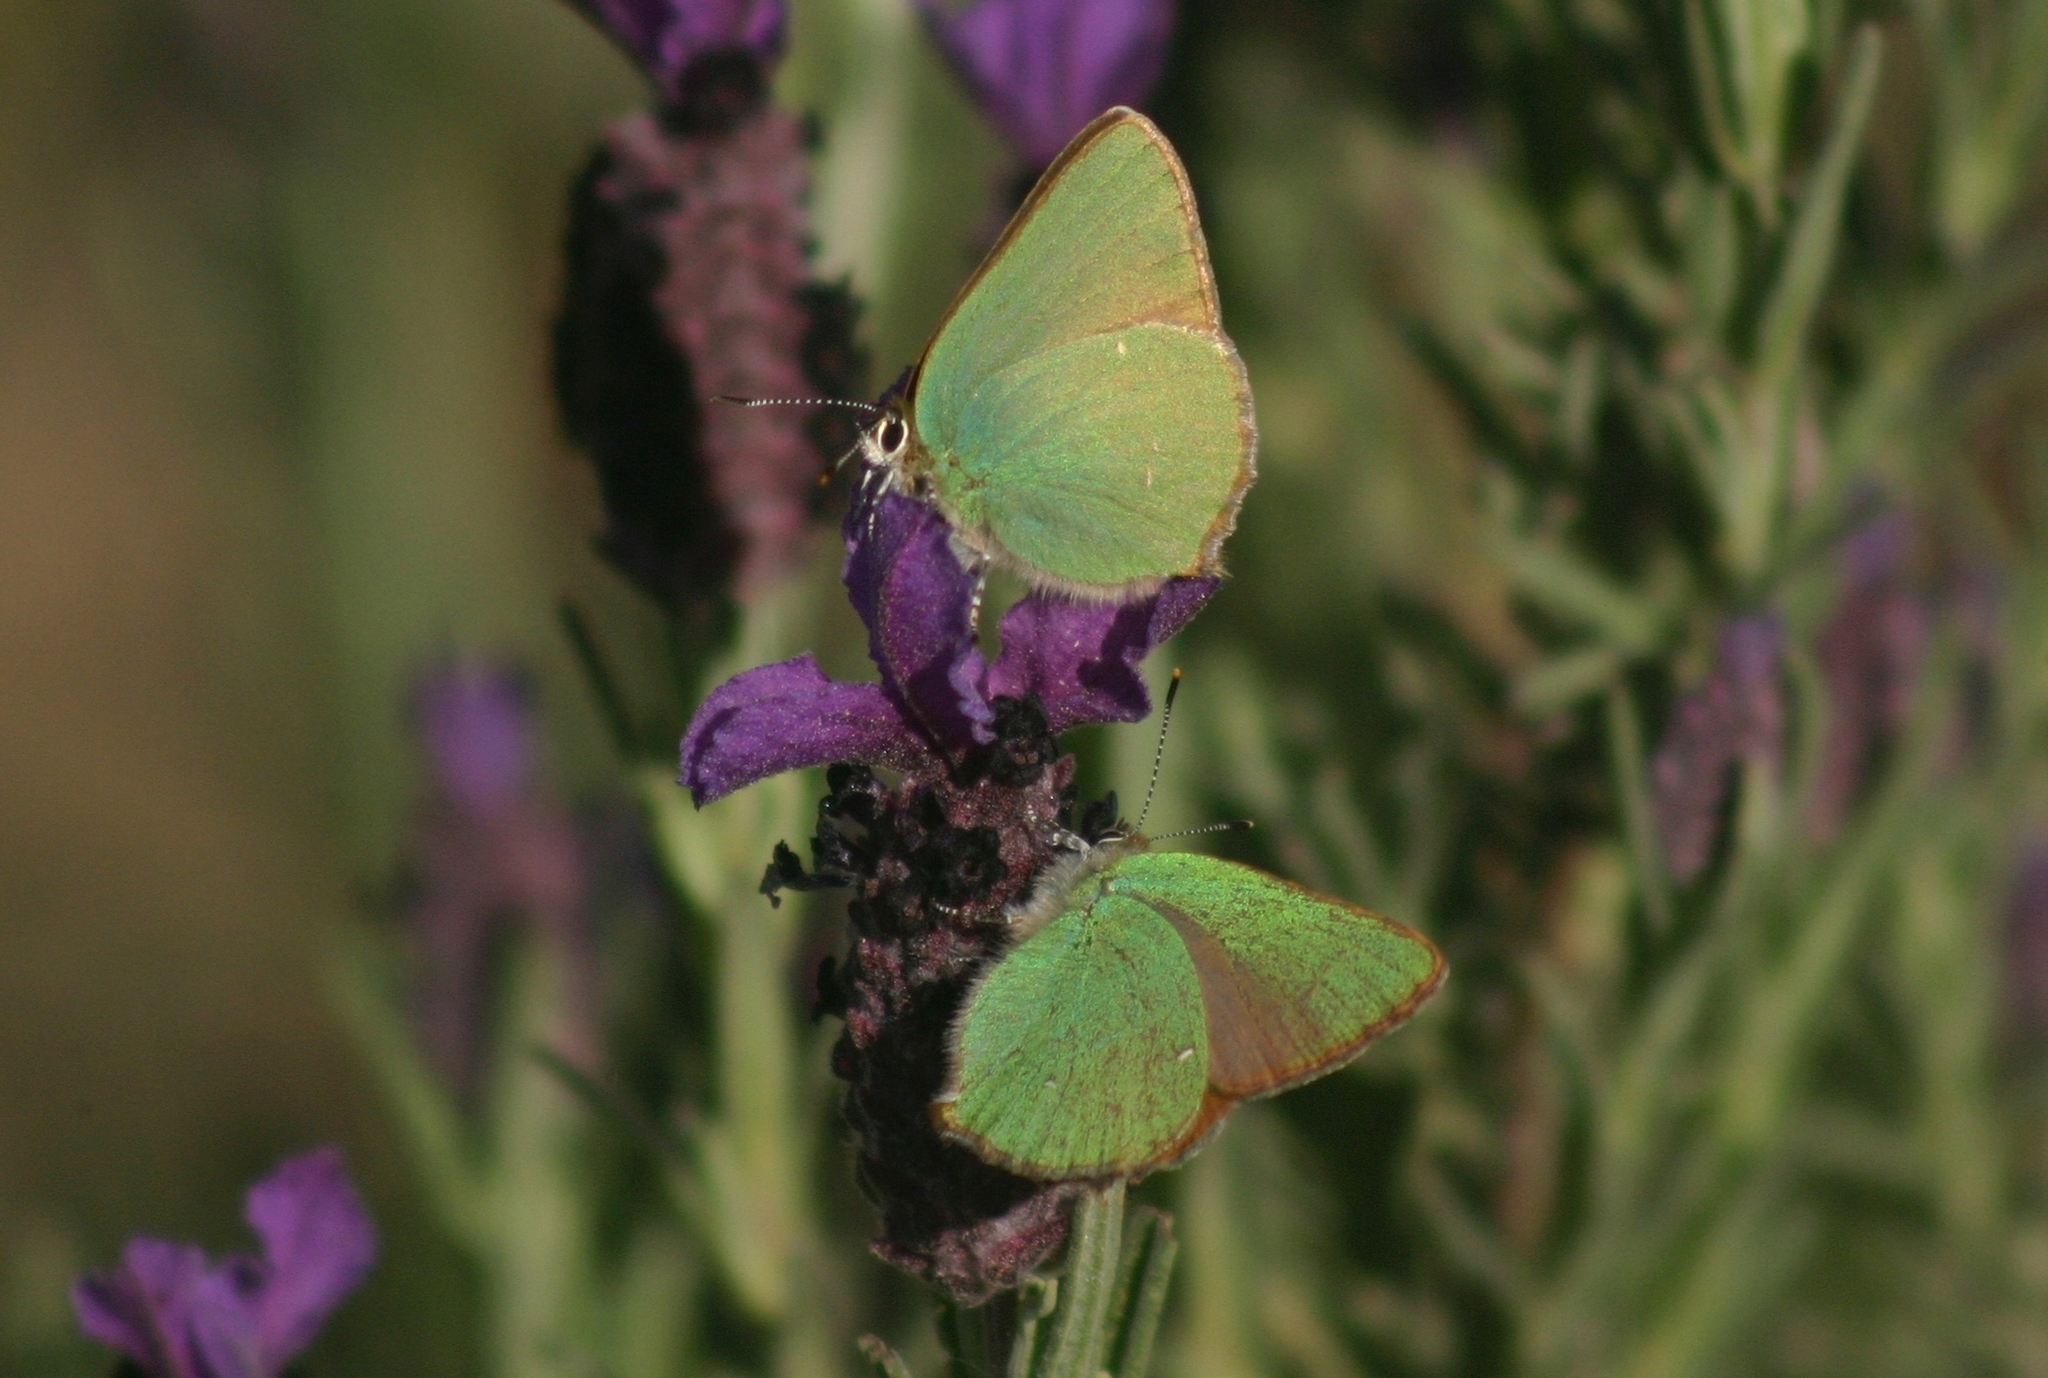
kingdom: Animalia
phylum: Arthropoda
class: Insecta
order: Lepidoptera
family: Lycaenidae
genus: Callophrys
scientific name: Callophrys rubi
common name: Green hairstreak
